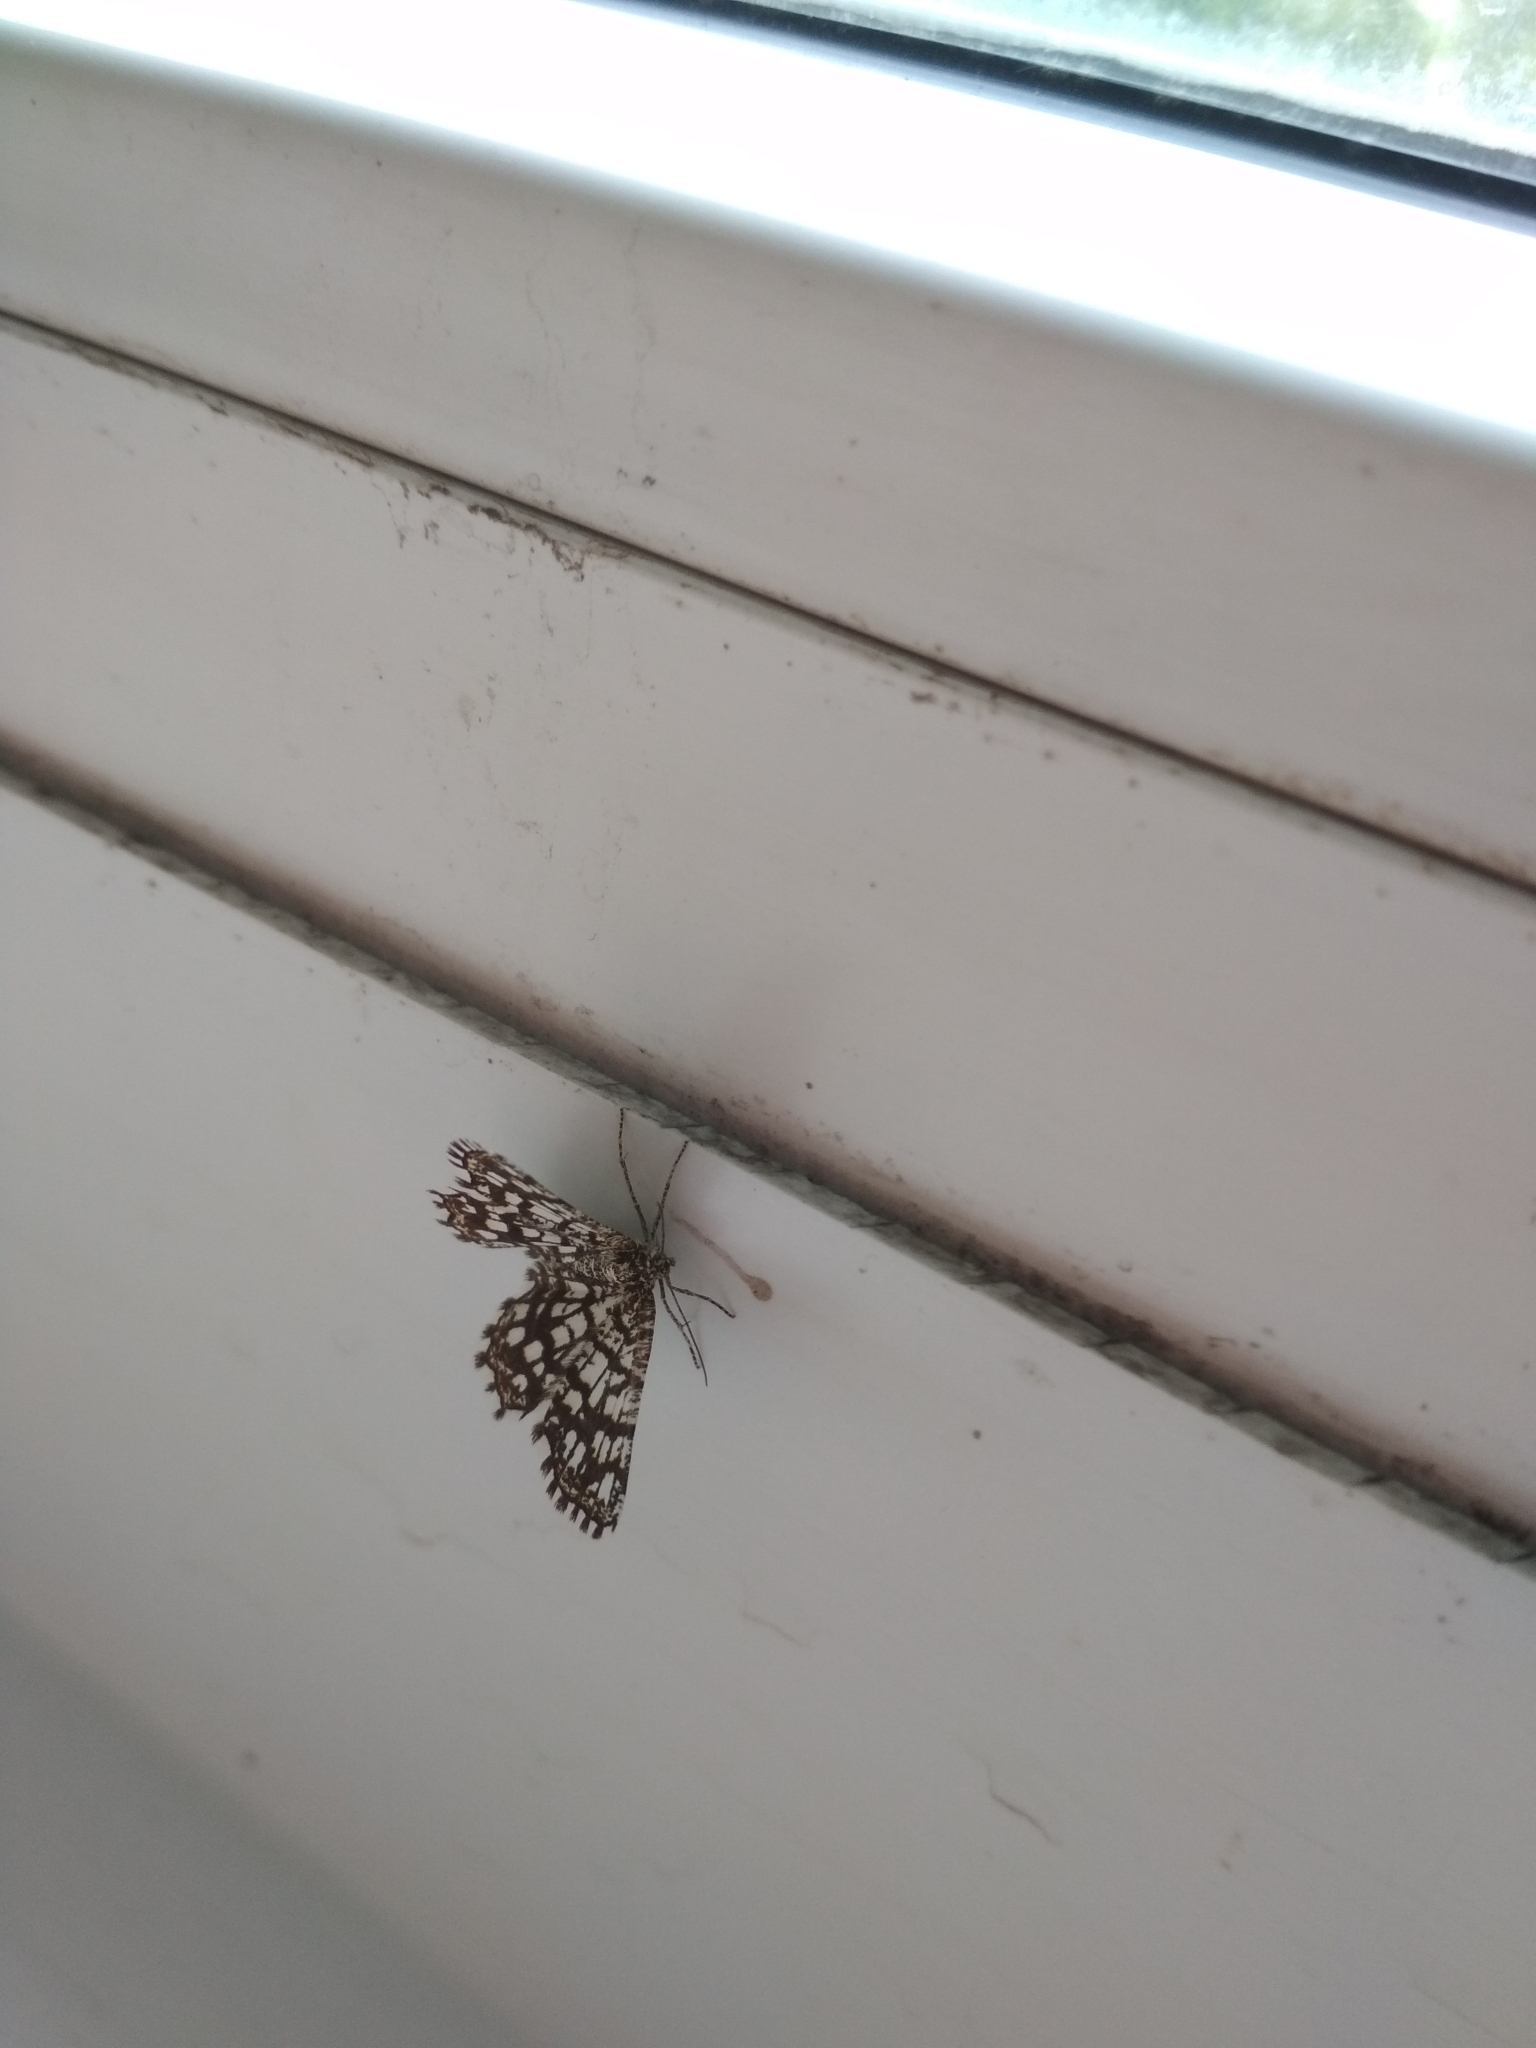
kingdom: Animalia
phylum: Arthropoda
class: Insecta
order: Lepidoptera
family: Geometridae
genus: Chiasmia
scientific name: Chiasmia clathrata
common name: Latticed heath
